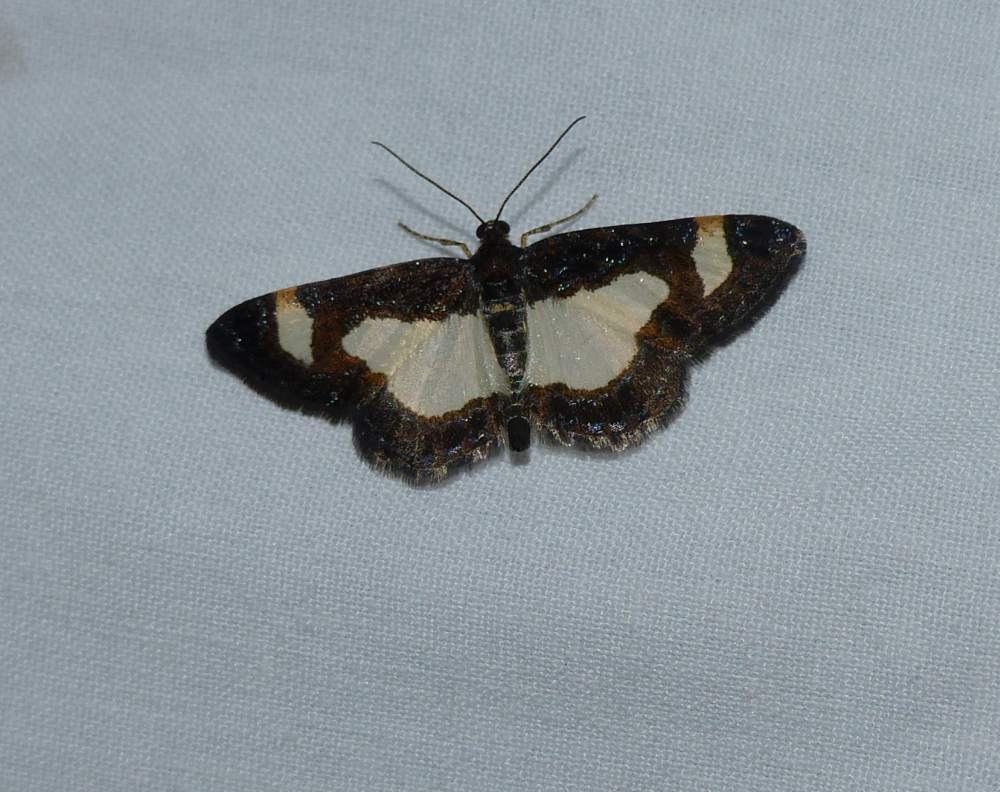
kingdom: Animalia
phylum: Arthropoda
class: Insecta
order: Lepidoptera
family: Geometridae
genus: Heliomata
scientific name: Heliomata cycladata
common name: Common spring moth
